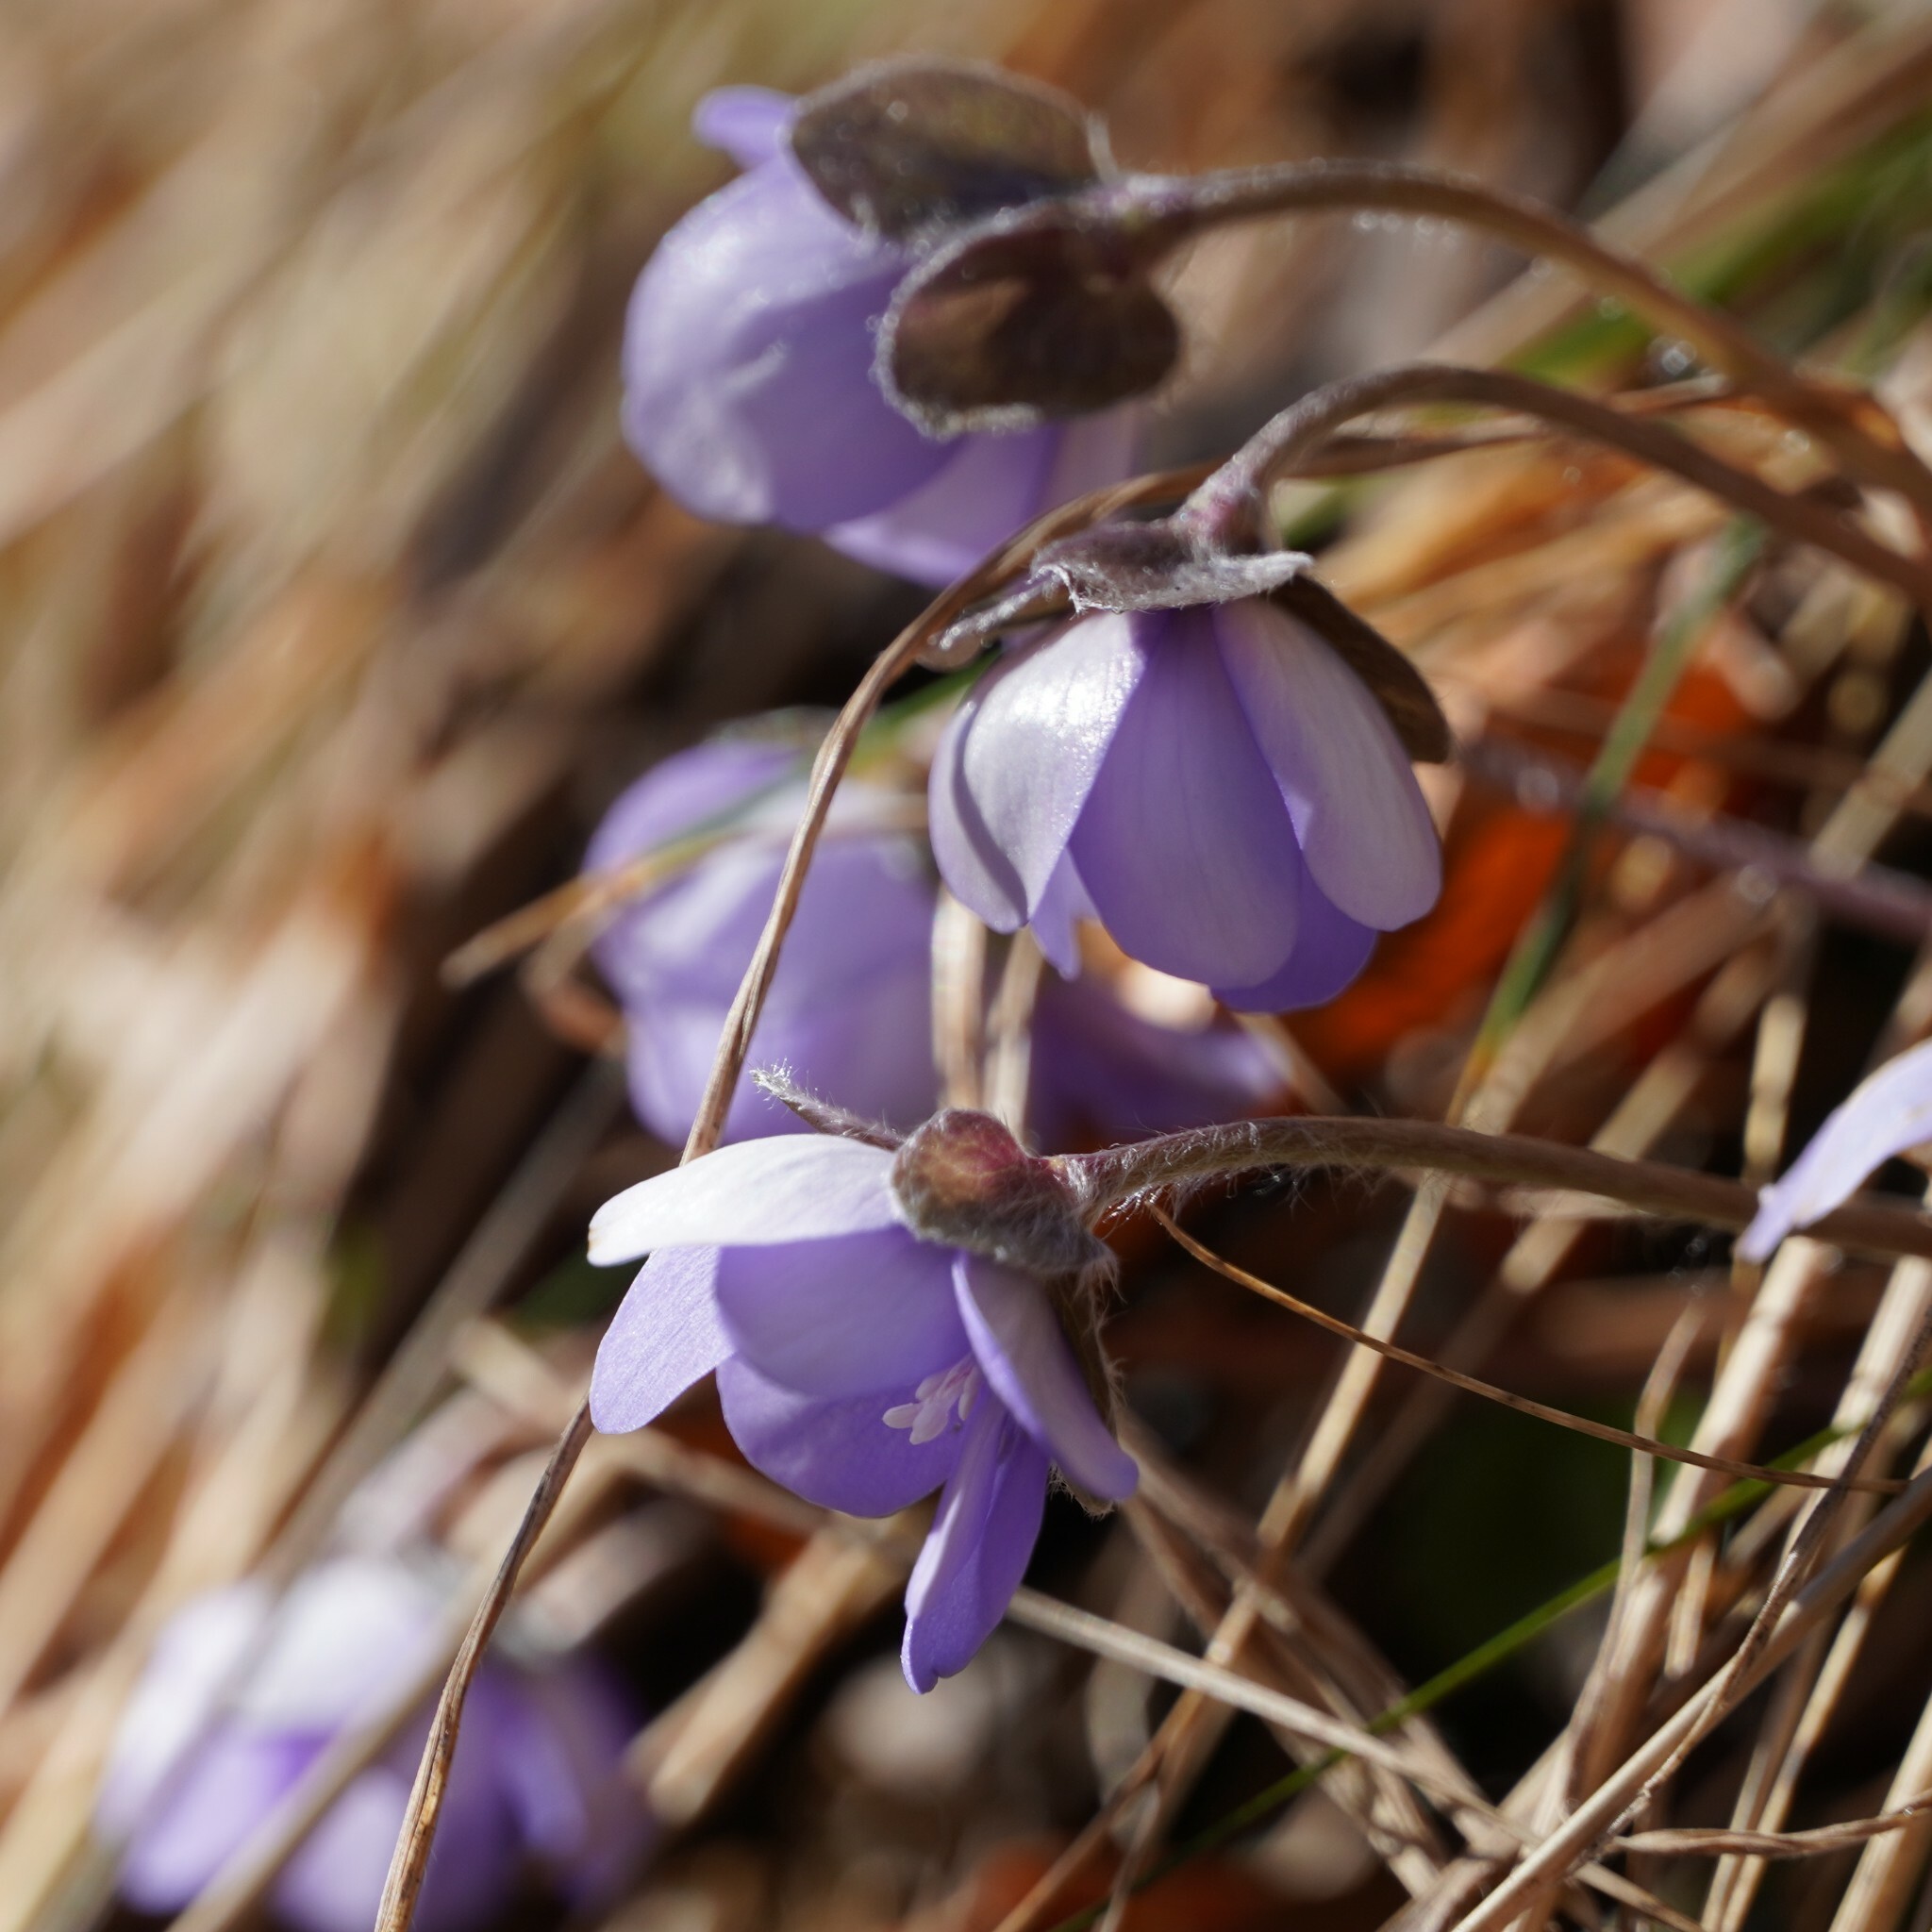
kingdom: Plantae
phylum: Tracheophyta
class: Magnoliopsida
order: Ranunculales
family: Ranunculaceae
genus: Hepatica
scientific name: Hepatica nobilis
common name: Liverleaf
